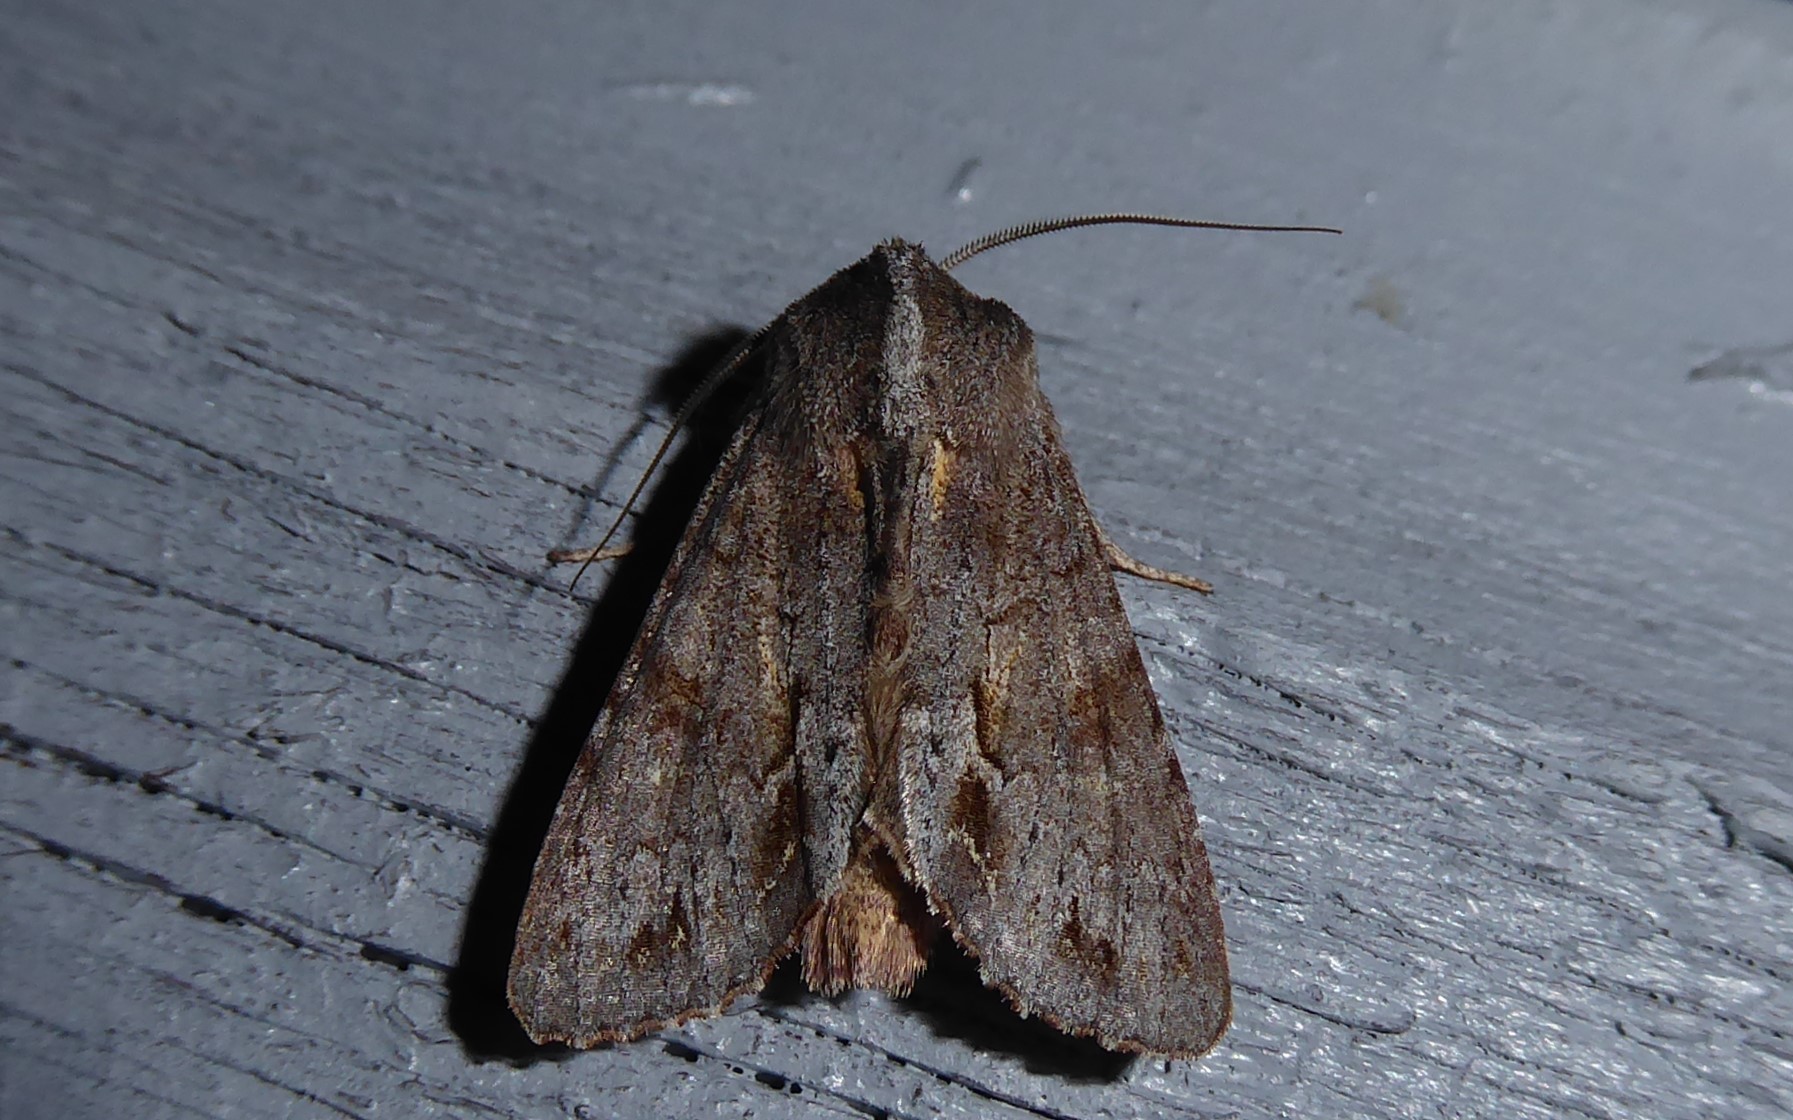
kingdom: Animalia
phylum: Arthropoda
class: Insecta
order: Lepidoptera
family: Noctuidae
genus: Ichneutica
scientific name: Ichneutica
